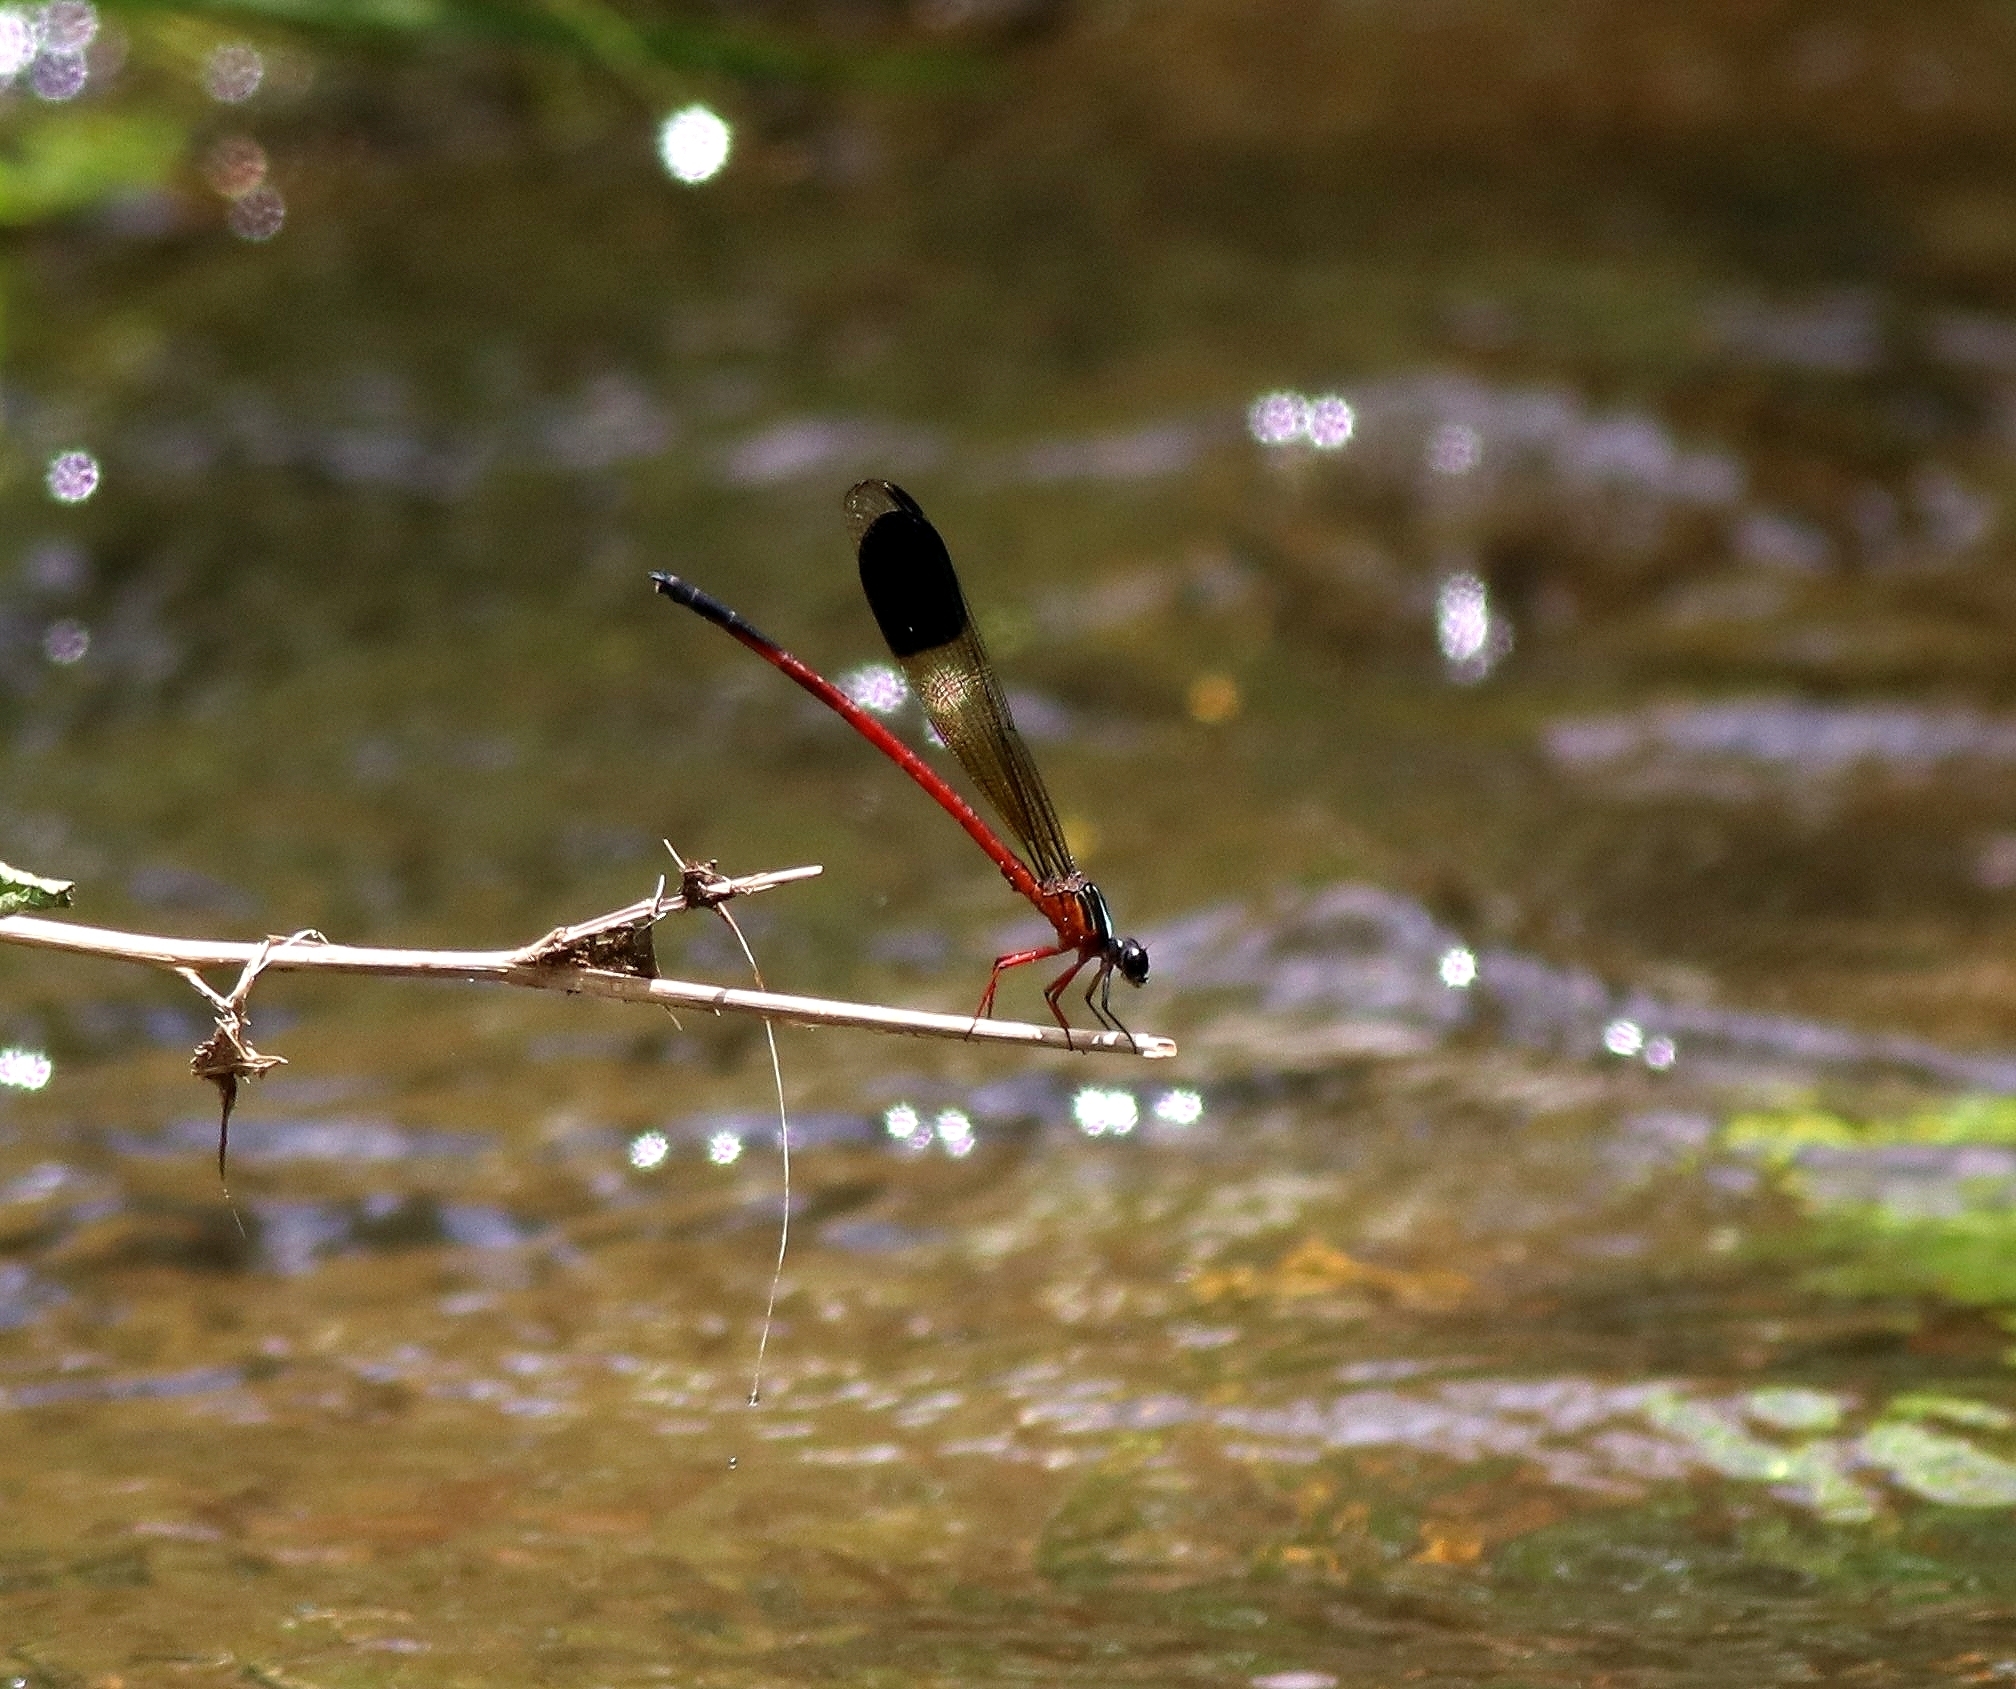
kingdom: Animalia
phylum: Arthropoda
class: Insecta
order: Odonata
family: Euphaeidae
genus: Euphaea
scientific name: Euphaea fraseri
